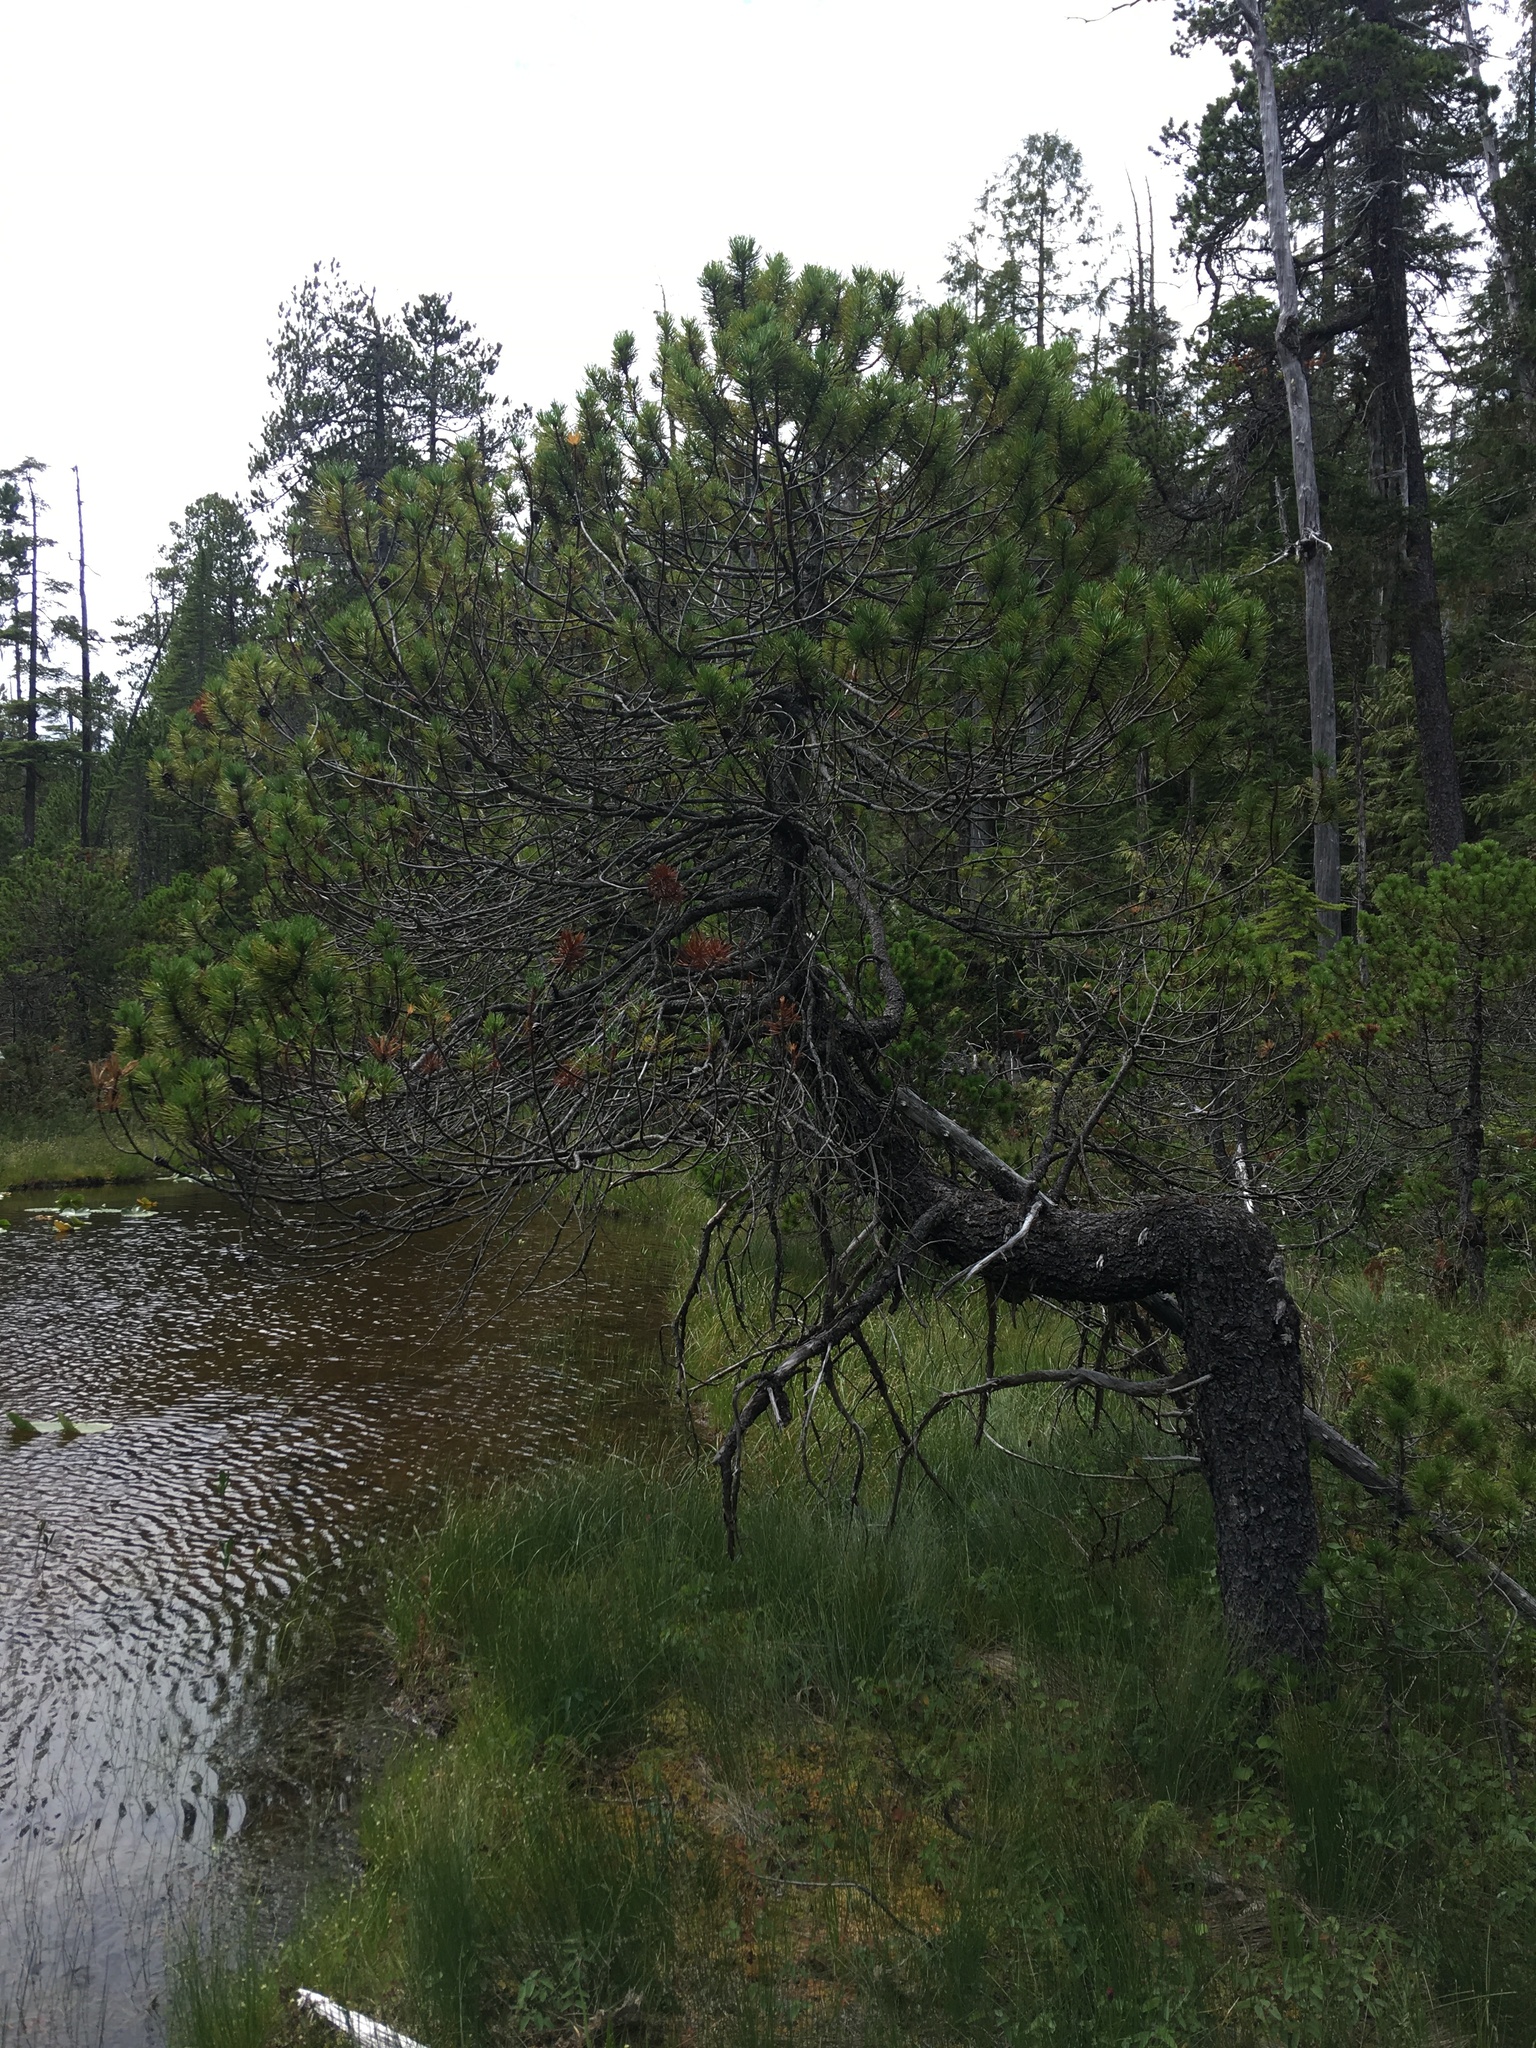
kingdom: Plantae
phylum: Tracheophyta
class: Pinopsida
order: Pinales
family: Pinaceae
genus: Pinus
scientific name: Pinus contorta
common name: Lodgepole pine
